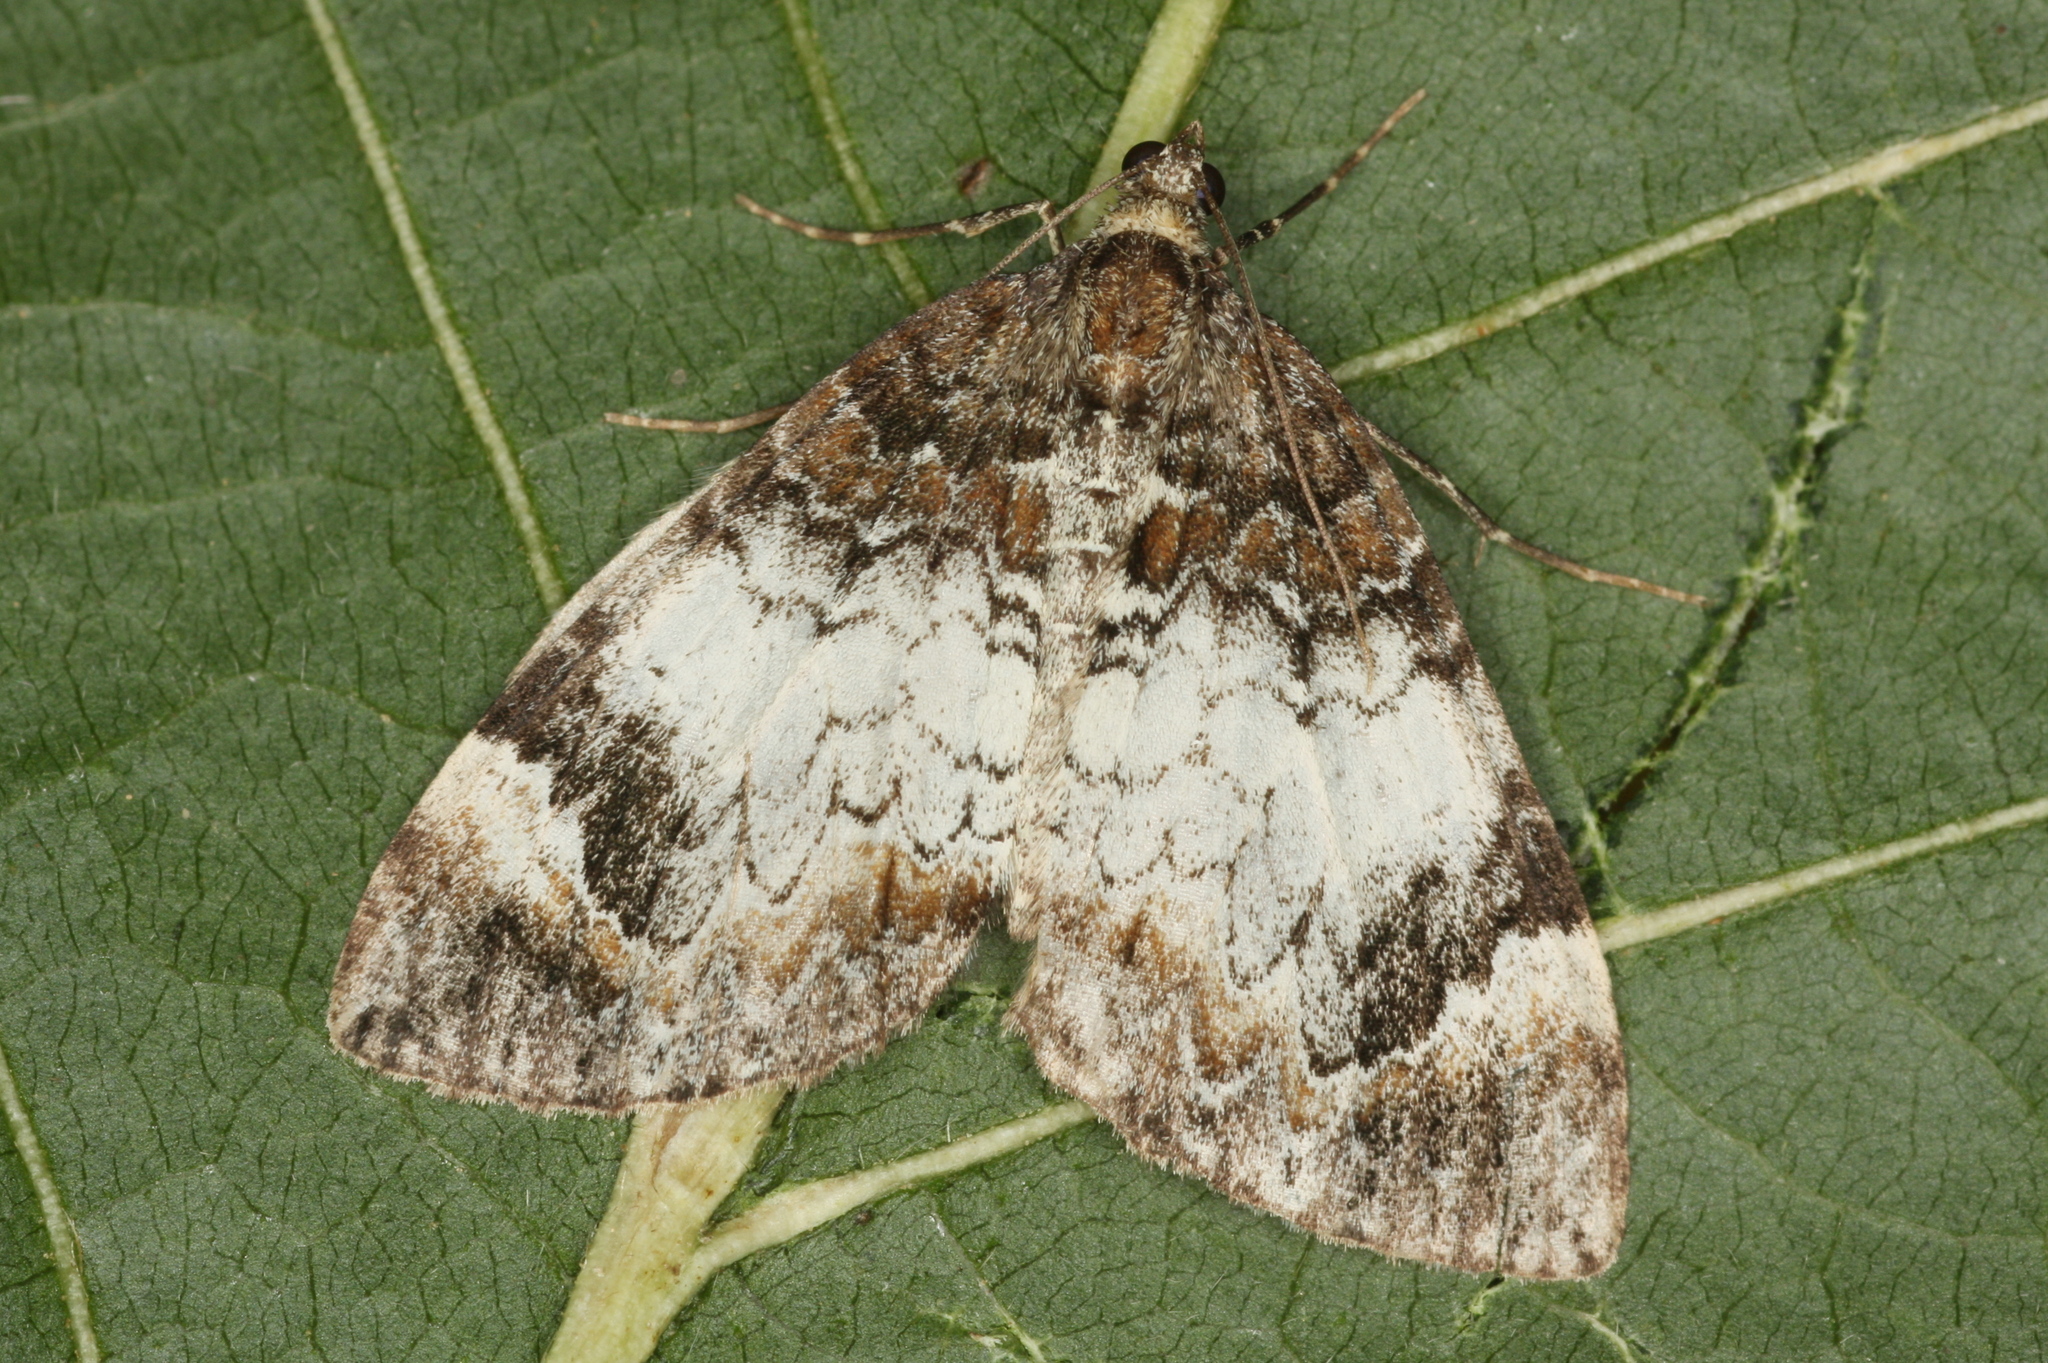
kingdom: Animalia
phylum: Arthropoda
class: Insecta
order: Lepidoptera
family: Geometridae
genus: Dysstroma
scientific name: Dysstroma truncata
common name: Common marbled carpet
